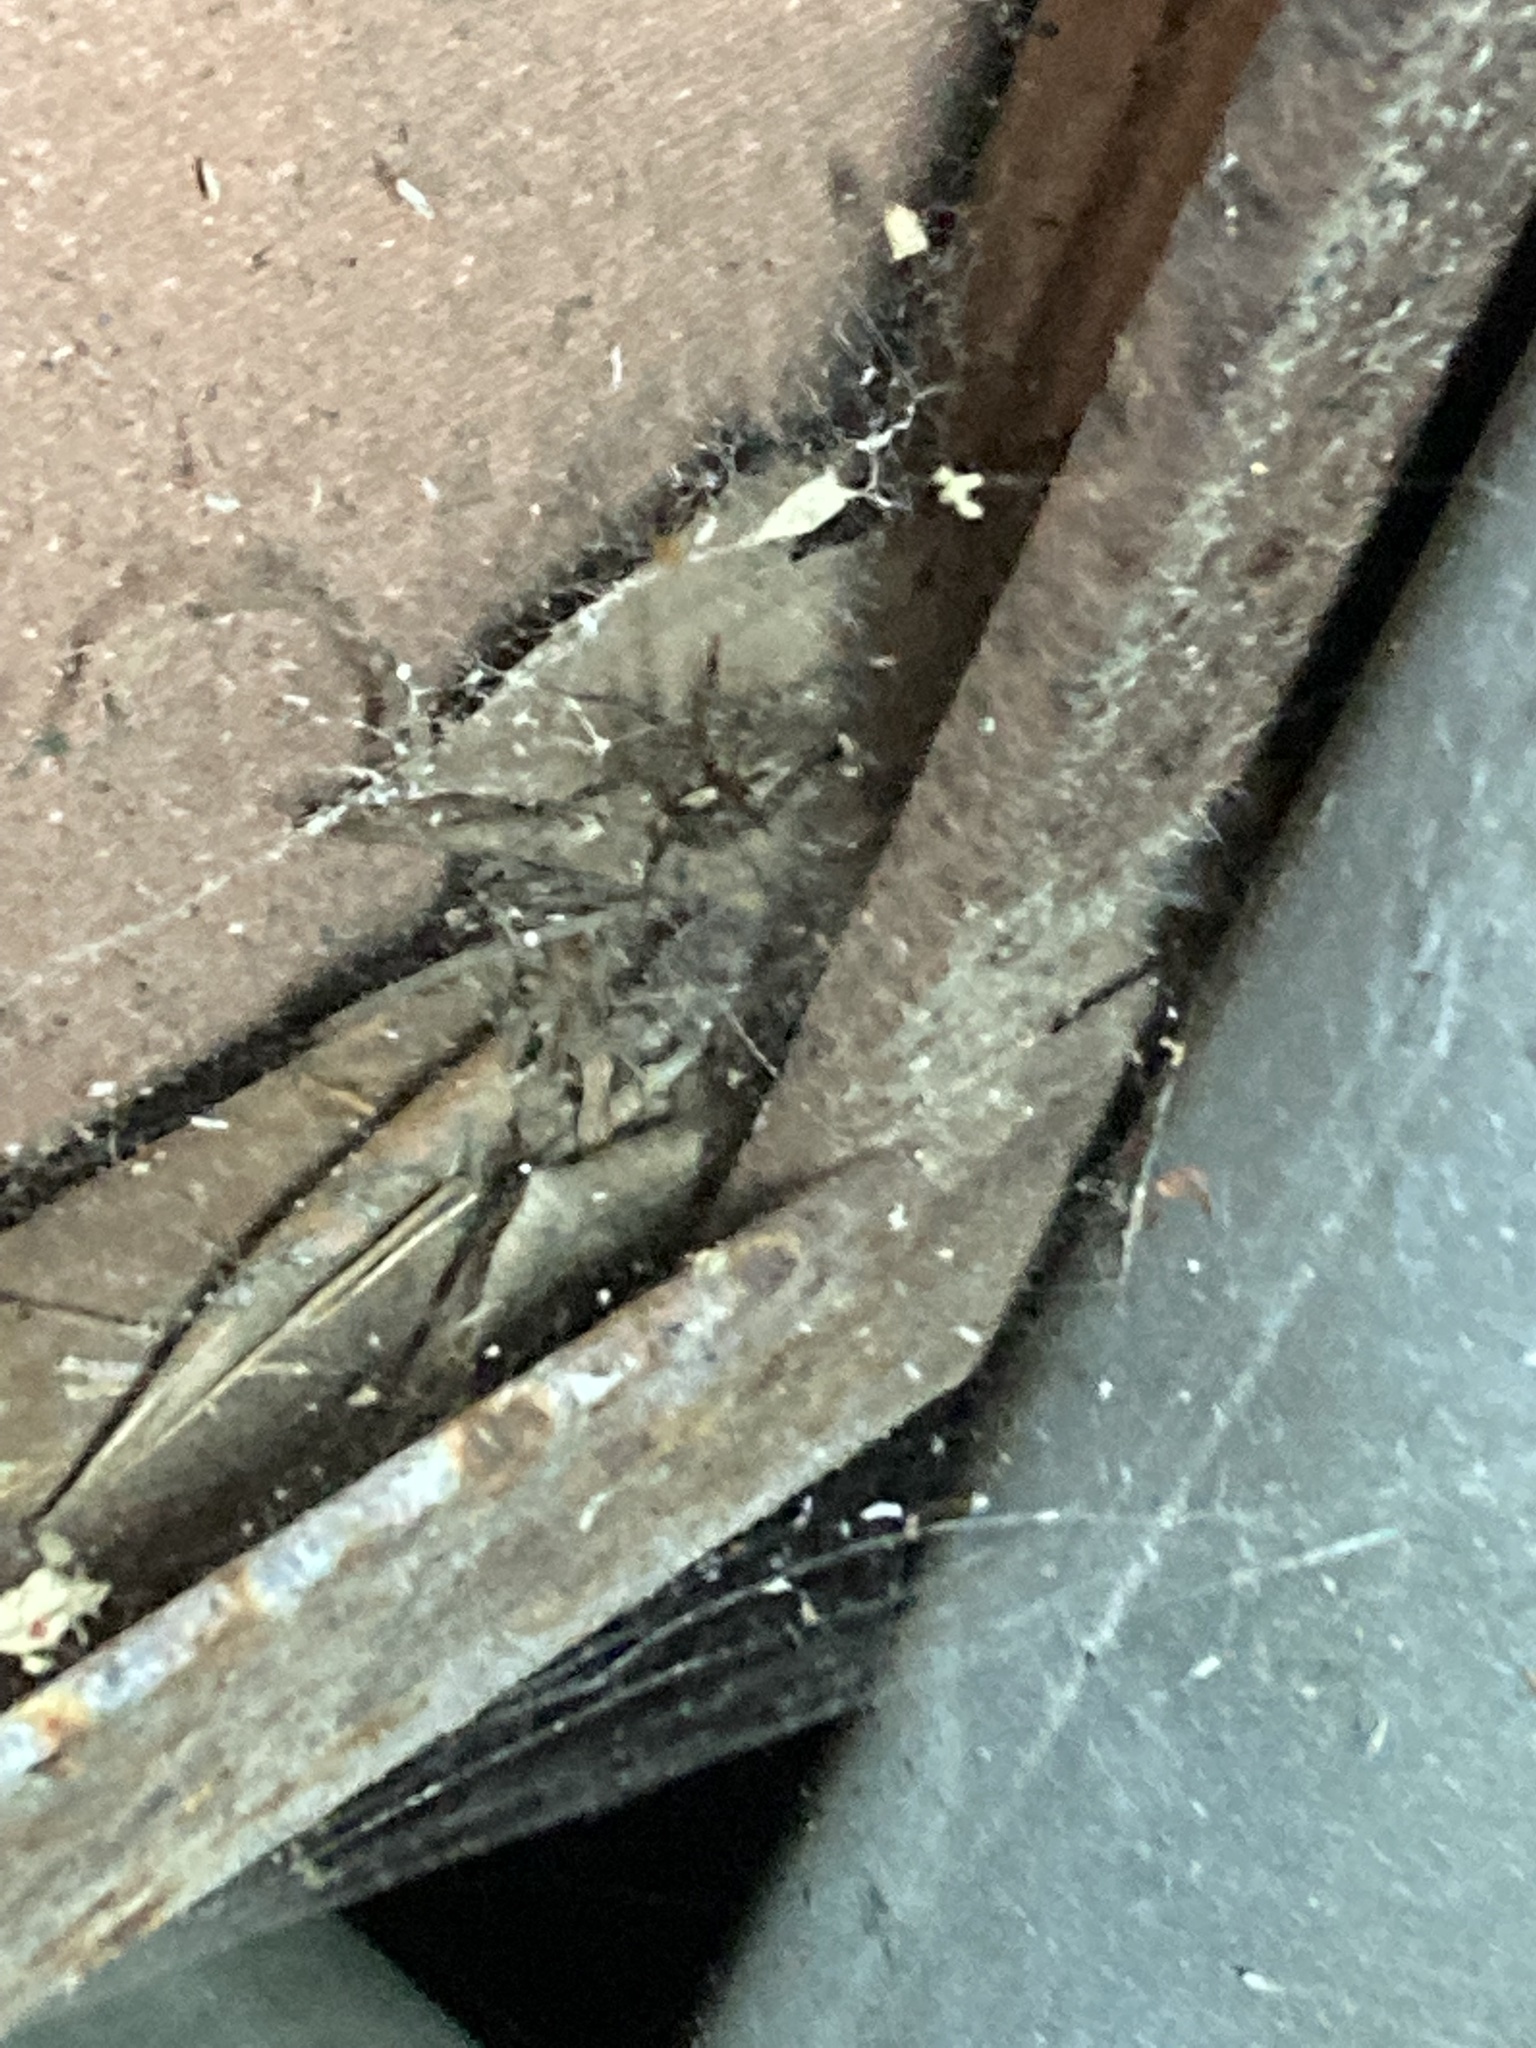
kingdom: Animalia
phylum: Arthropoda
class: Arachnida
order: Araneae
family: Agelenidae
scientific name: Agelenidae
